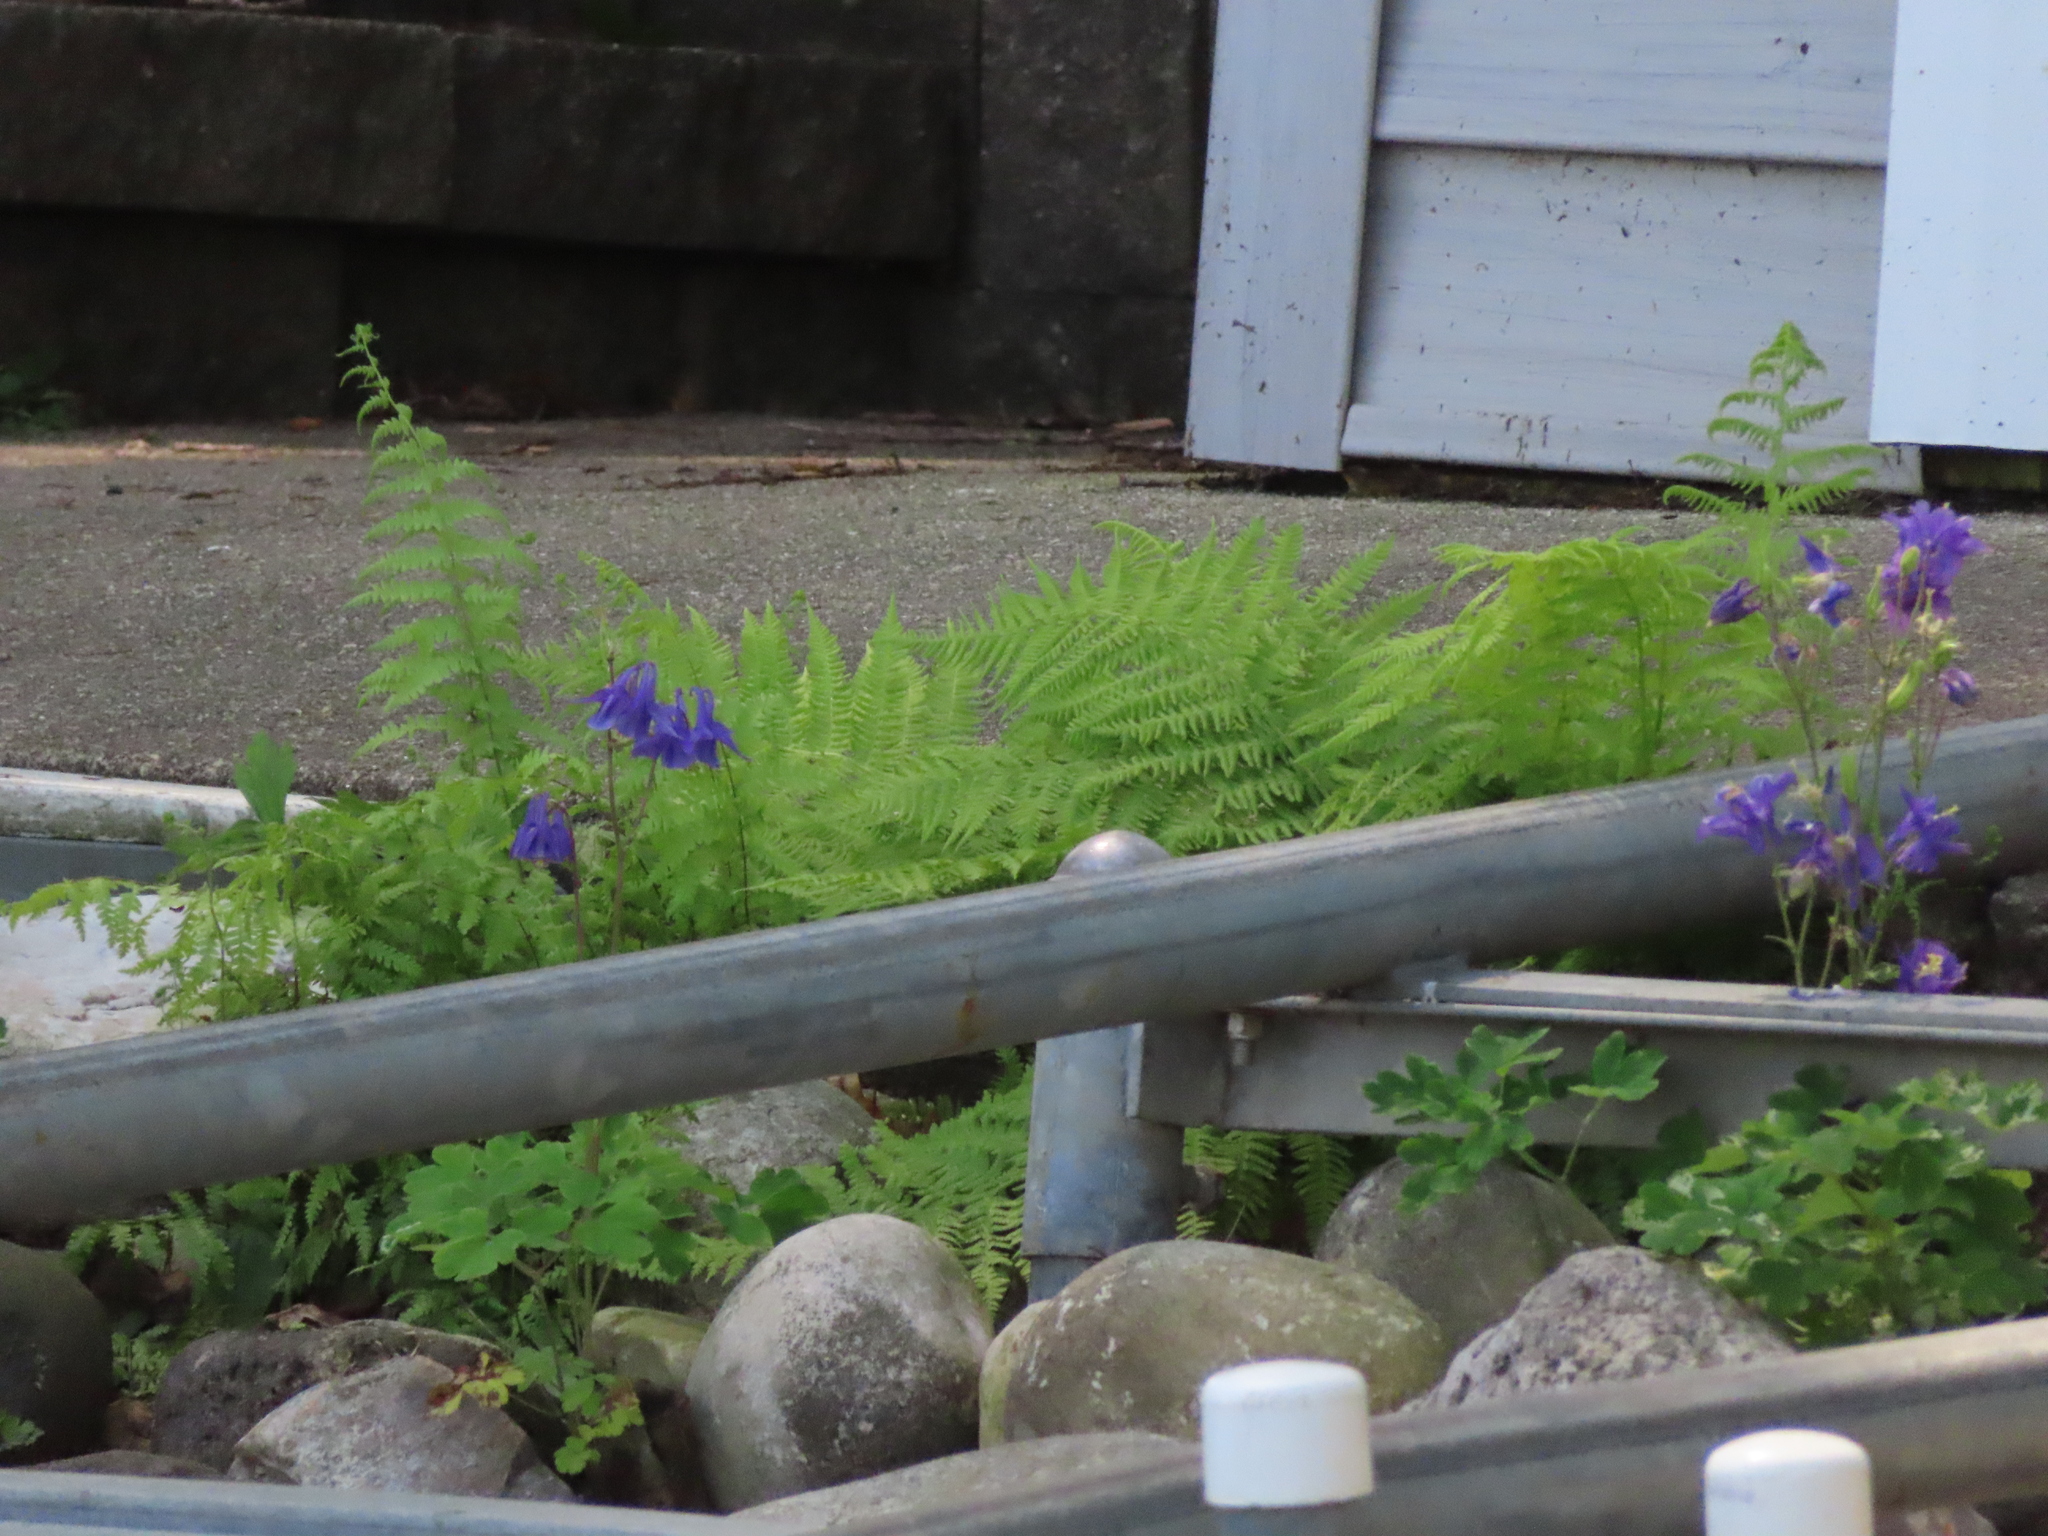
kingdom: Plantae
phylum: Tracheophyta
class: Magnoliopsida
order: Ranunculales
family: Ranunculaceae
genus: Aquilegia
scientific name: Aquilegia vulgaris
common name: Columbine
